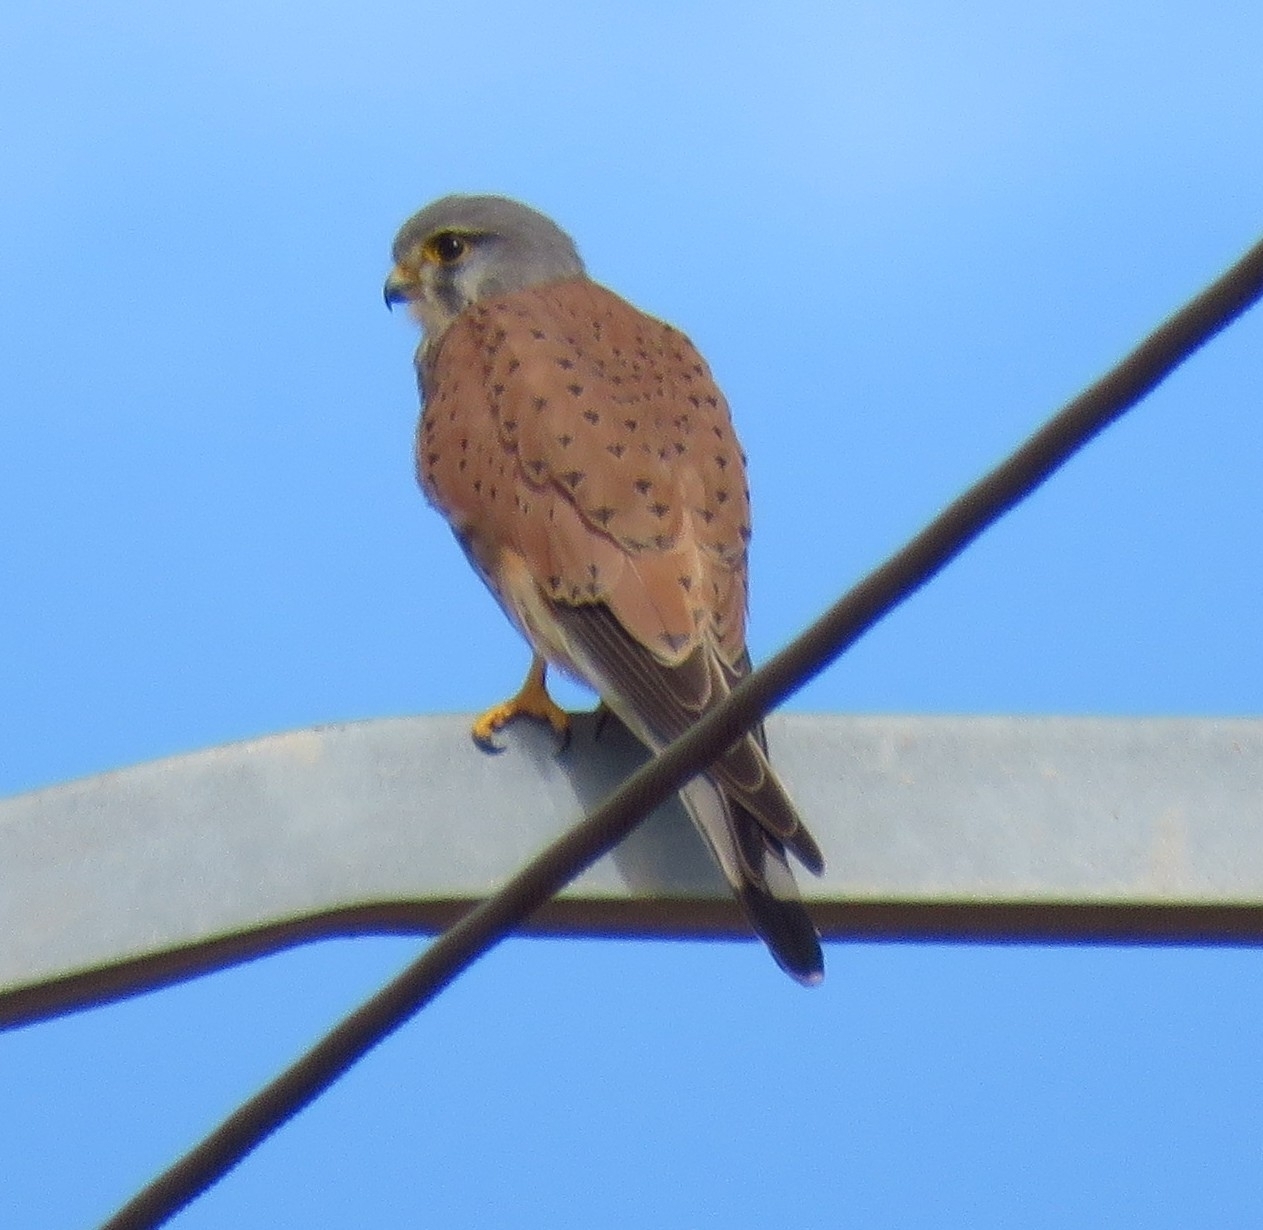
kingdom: Animalia
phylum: Chordata
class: Aves
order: Falconiformes
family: Falconidae
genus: Falco
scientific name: Falco tinnunculus
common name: Common kestrel
